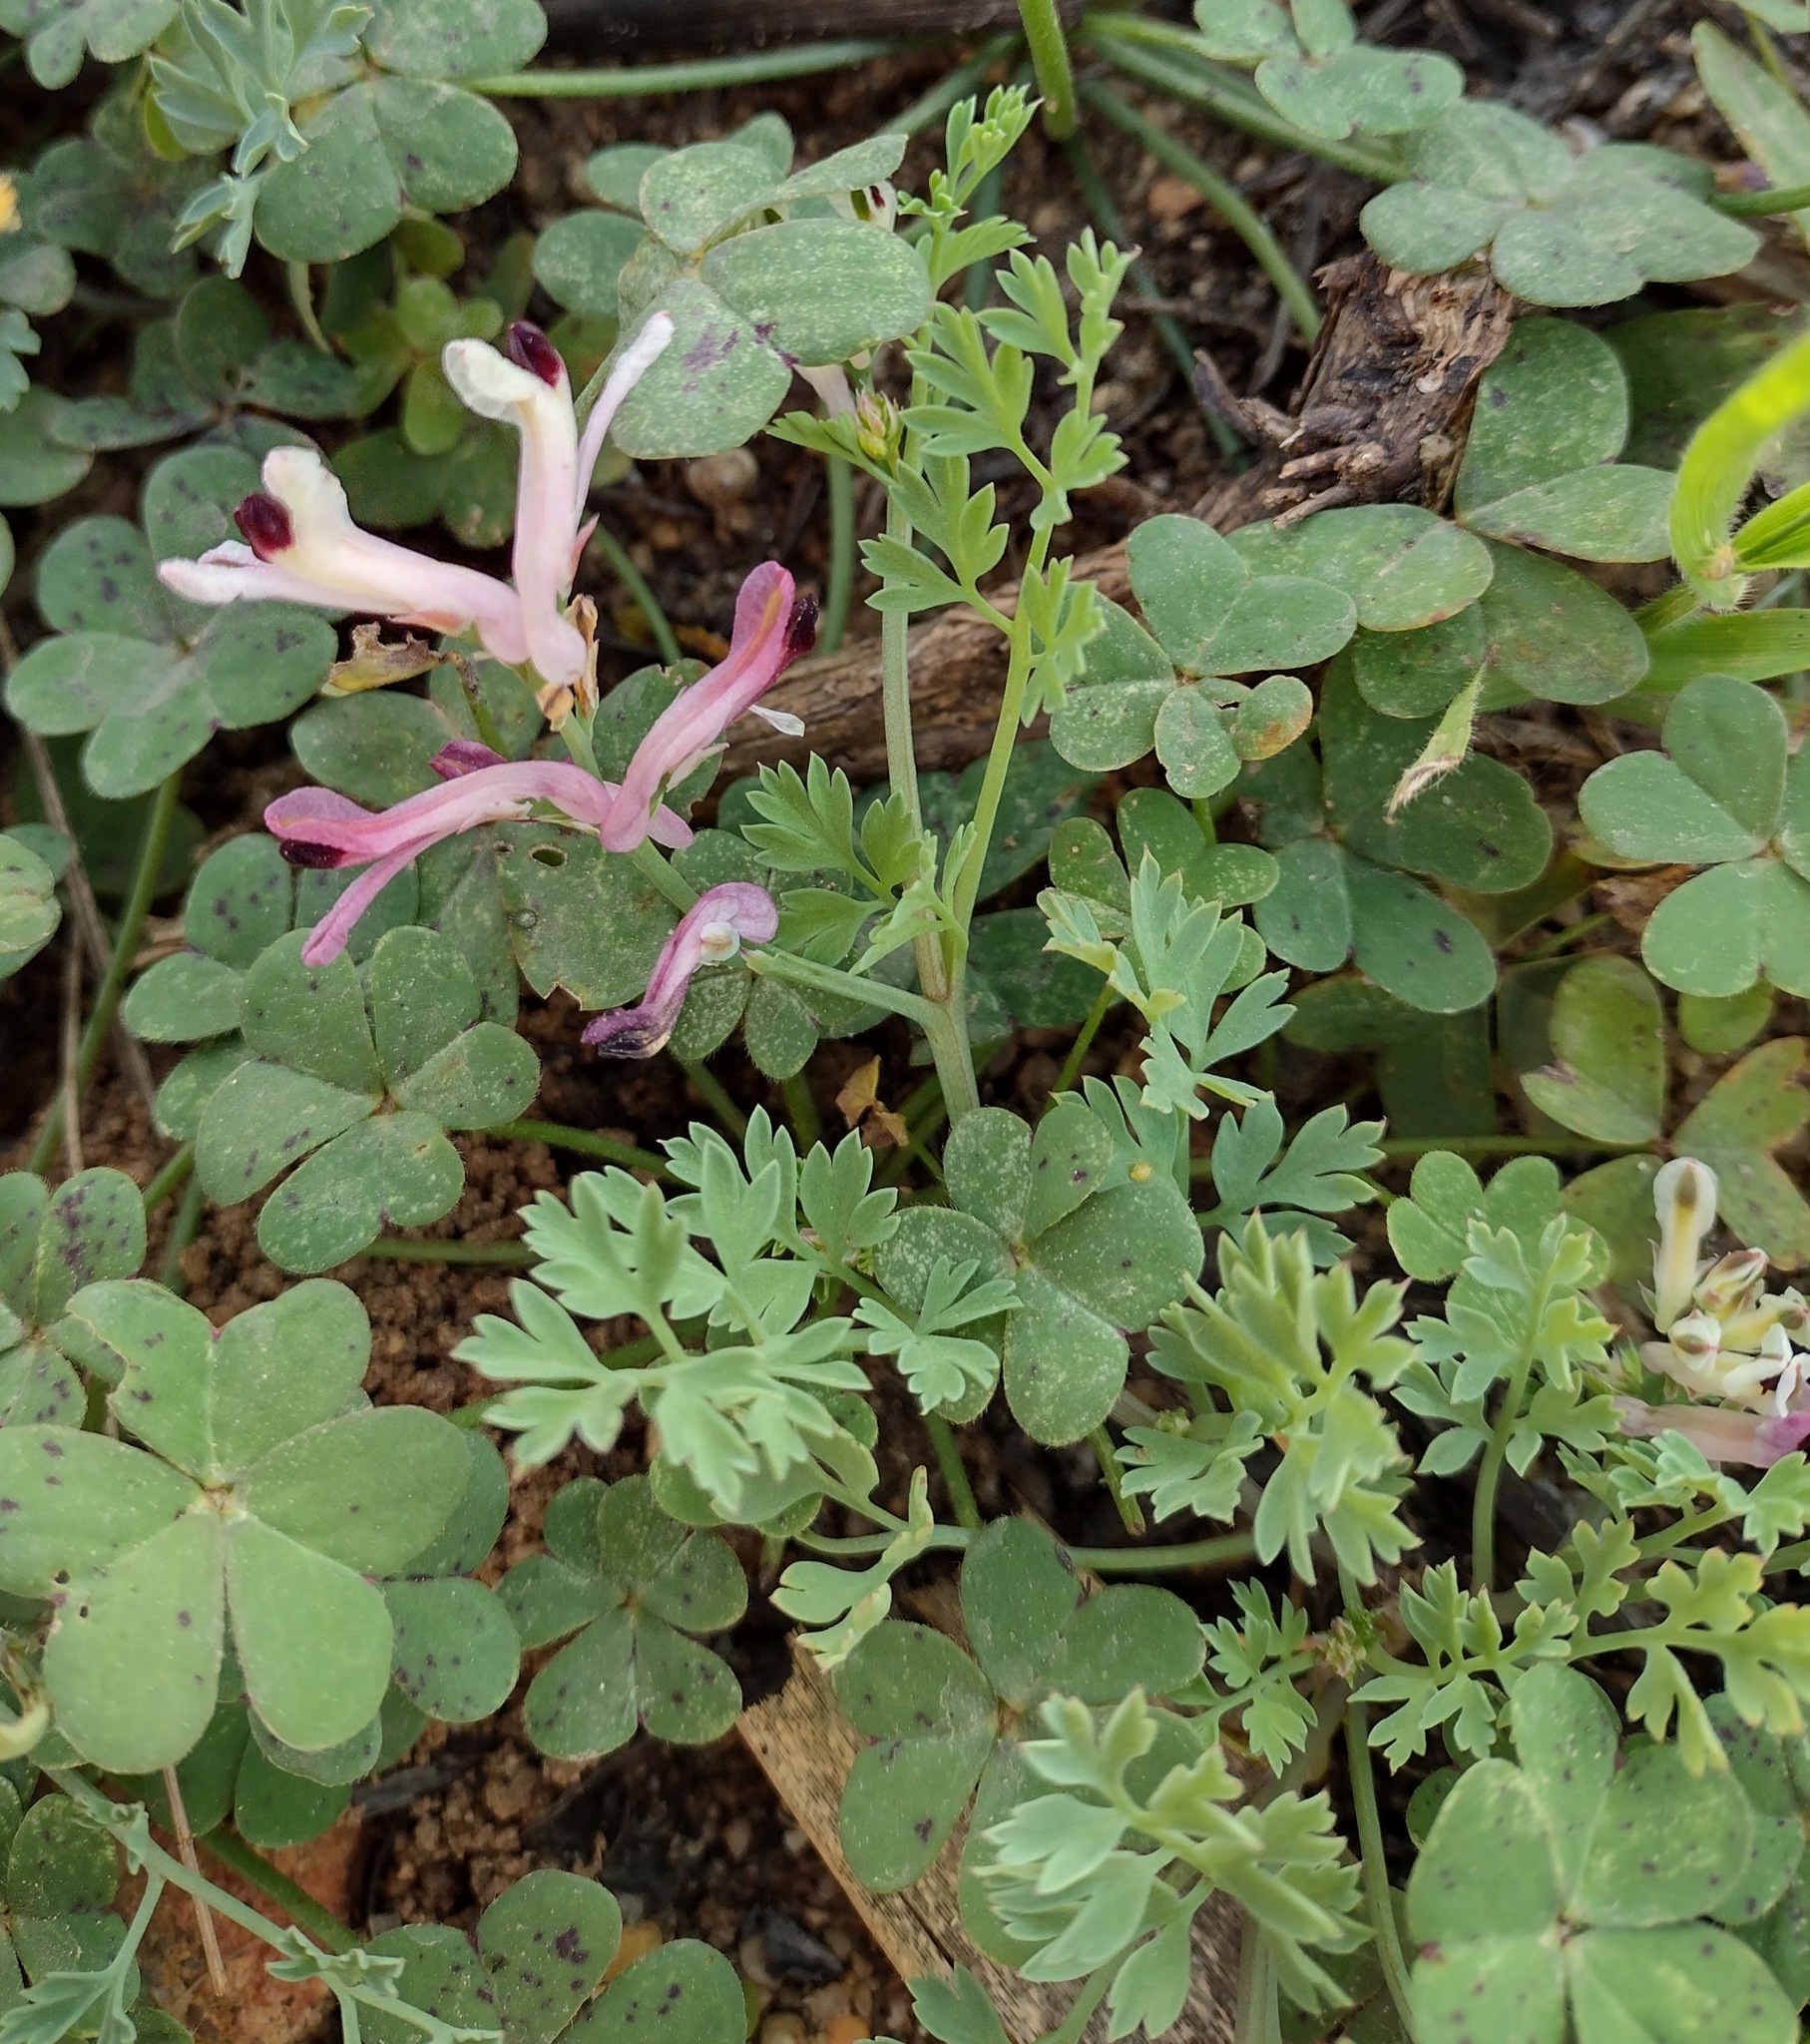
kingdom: Plantae
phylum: Tracheophyta
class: Magnoliopsida
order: Ranunculales
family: Papaveraceae
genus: Fumaria
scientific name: Fumaria agraria
